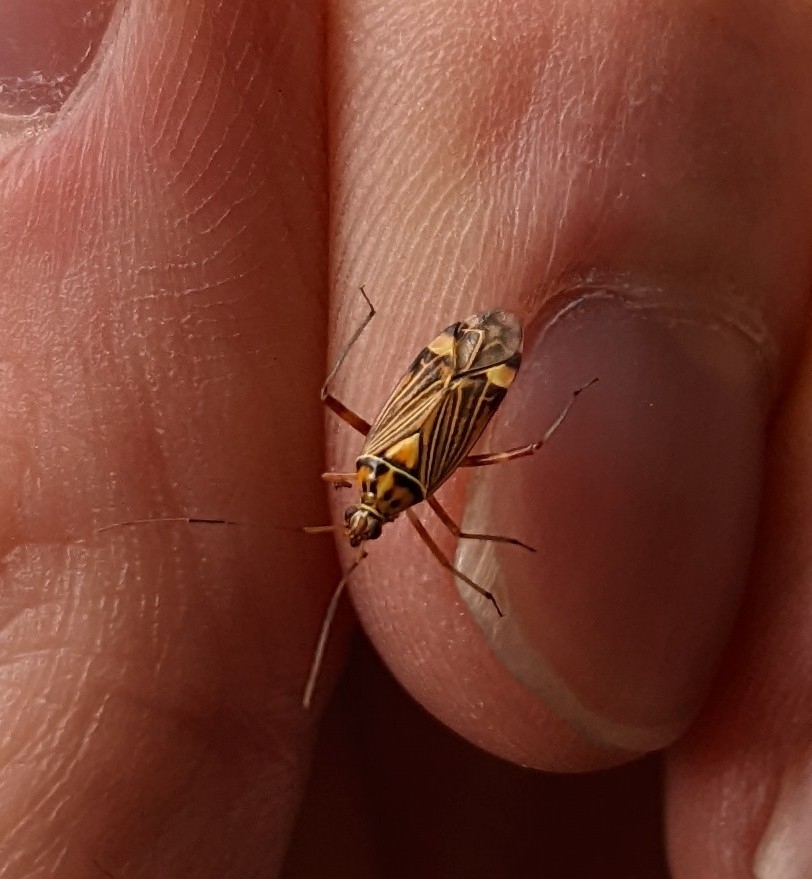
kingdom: Animalia
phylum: Arthropoda
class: Insecta
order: Hemiptera
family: Miridae
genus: Rhabdomiris
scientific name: Rhabdomiris striatellus
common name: Plant bug
